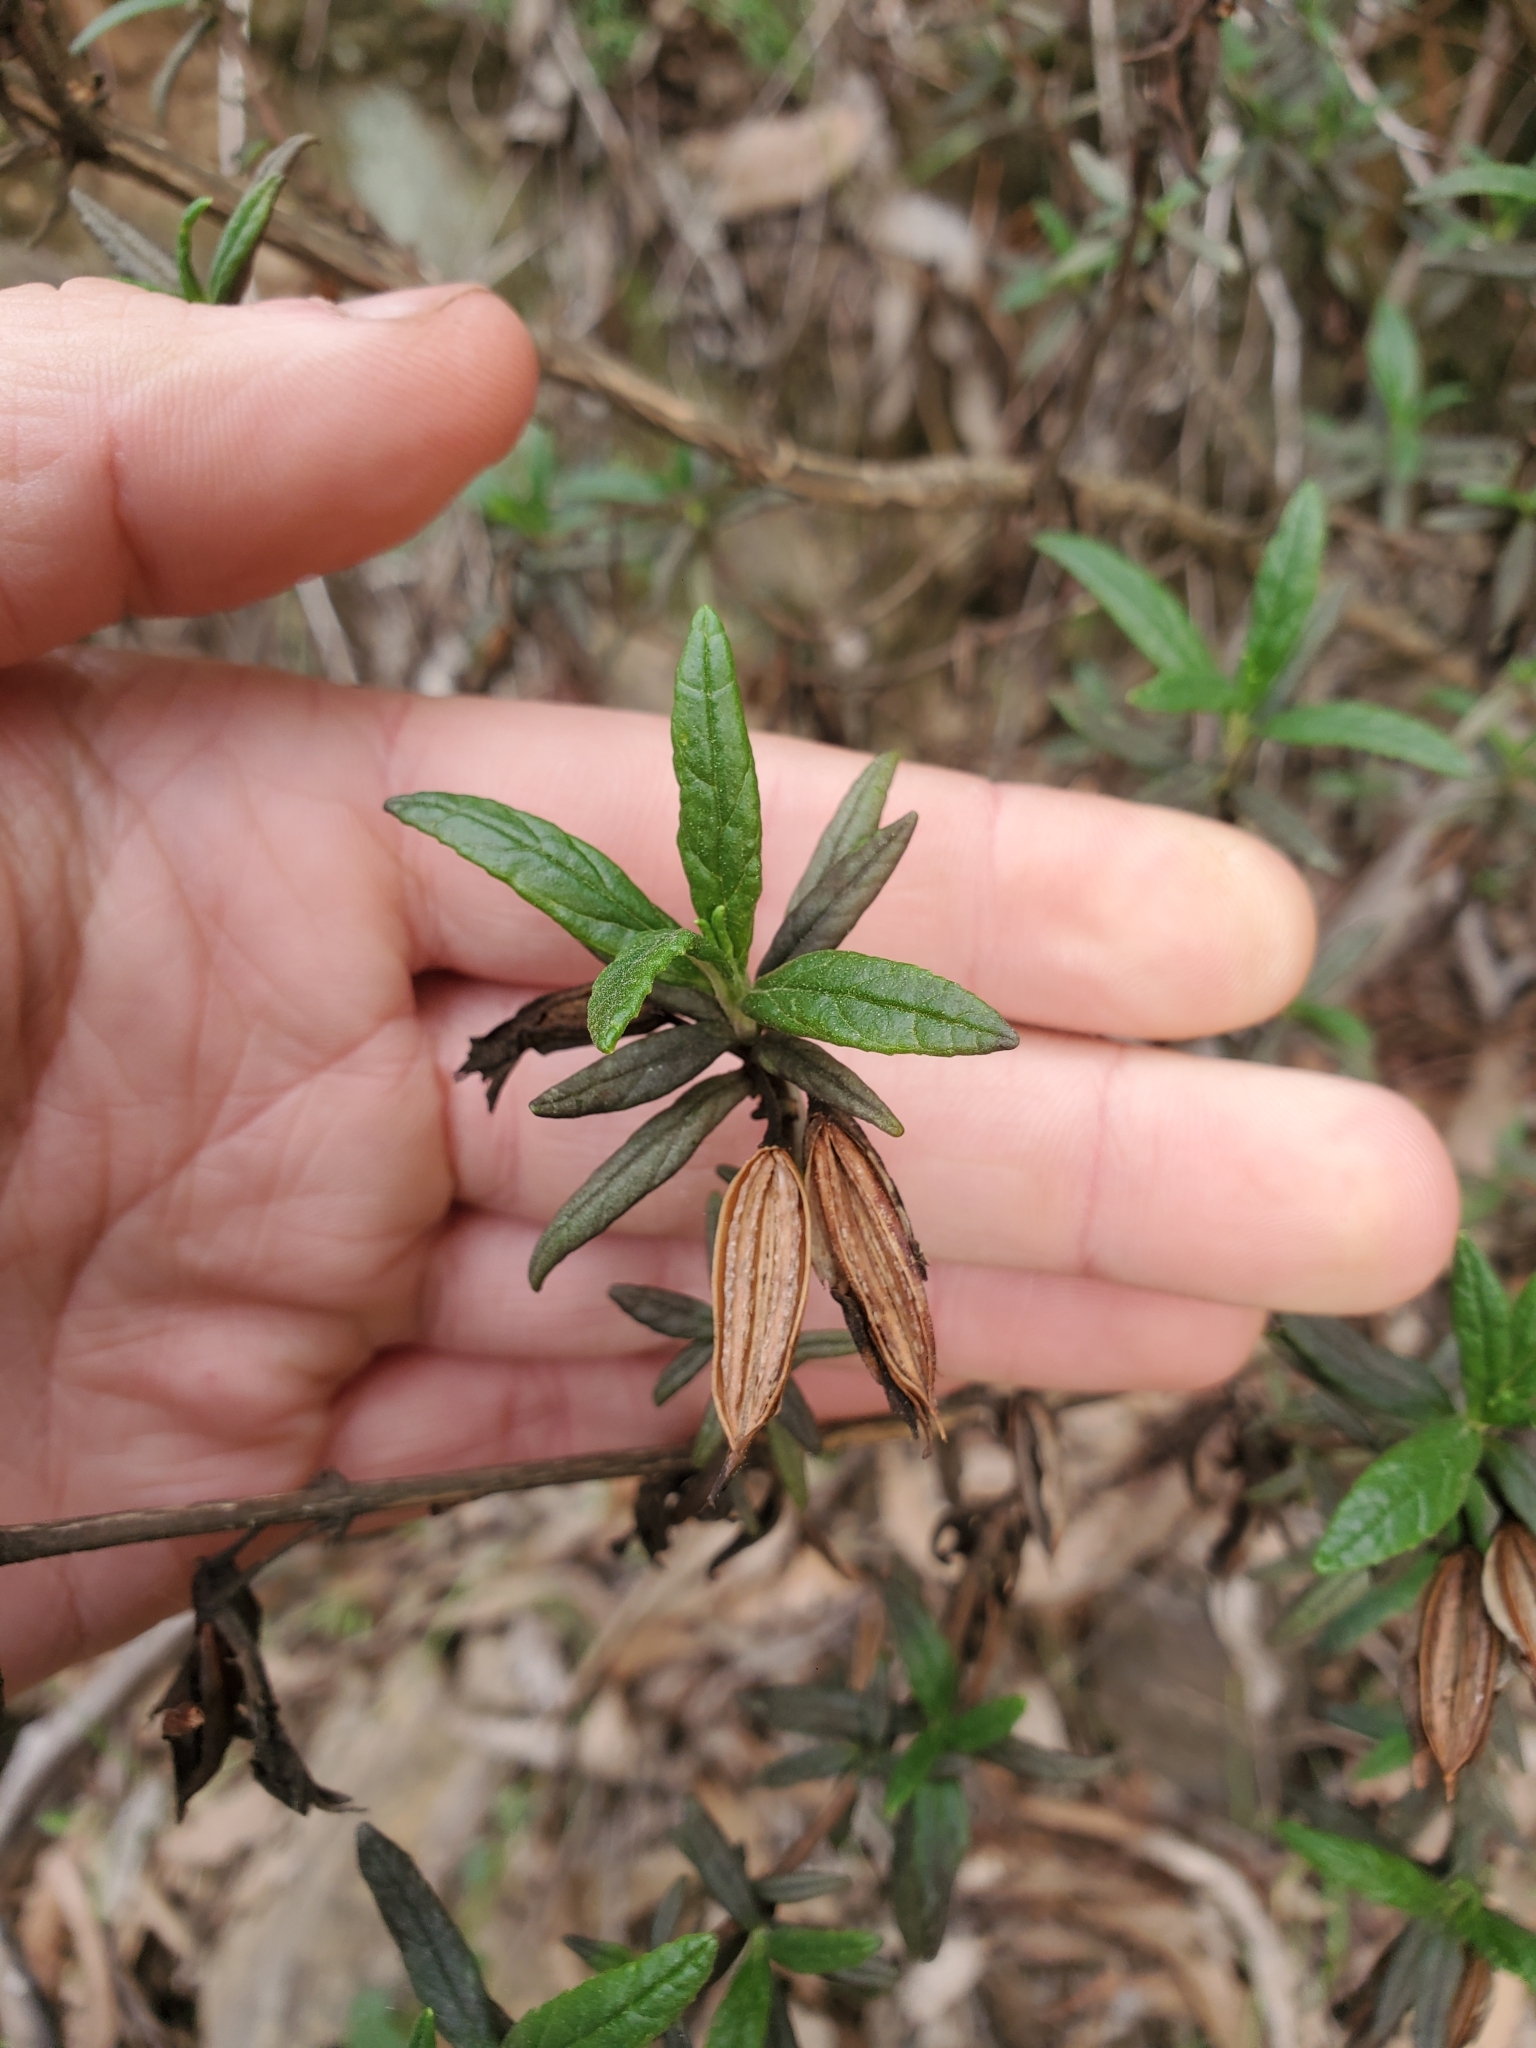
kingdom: Plantae
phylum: Tracheophyta
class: Magnoliopsida
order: Lamiales
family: Phrymaceae
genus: Diplacus
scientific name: Diplacus aurantiacus
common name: Bush monkey-flower
